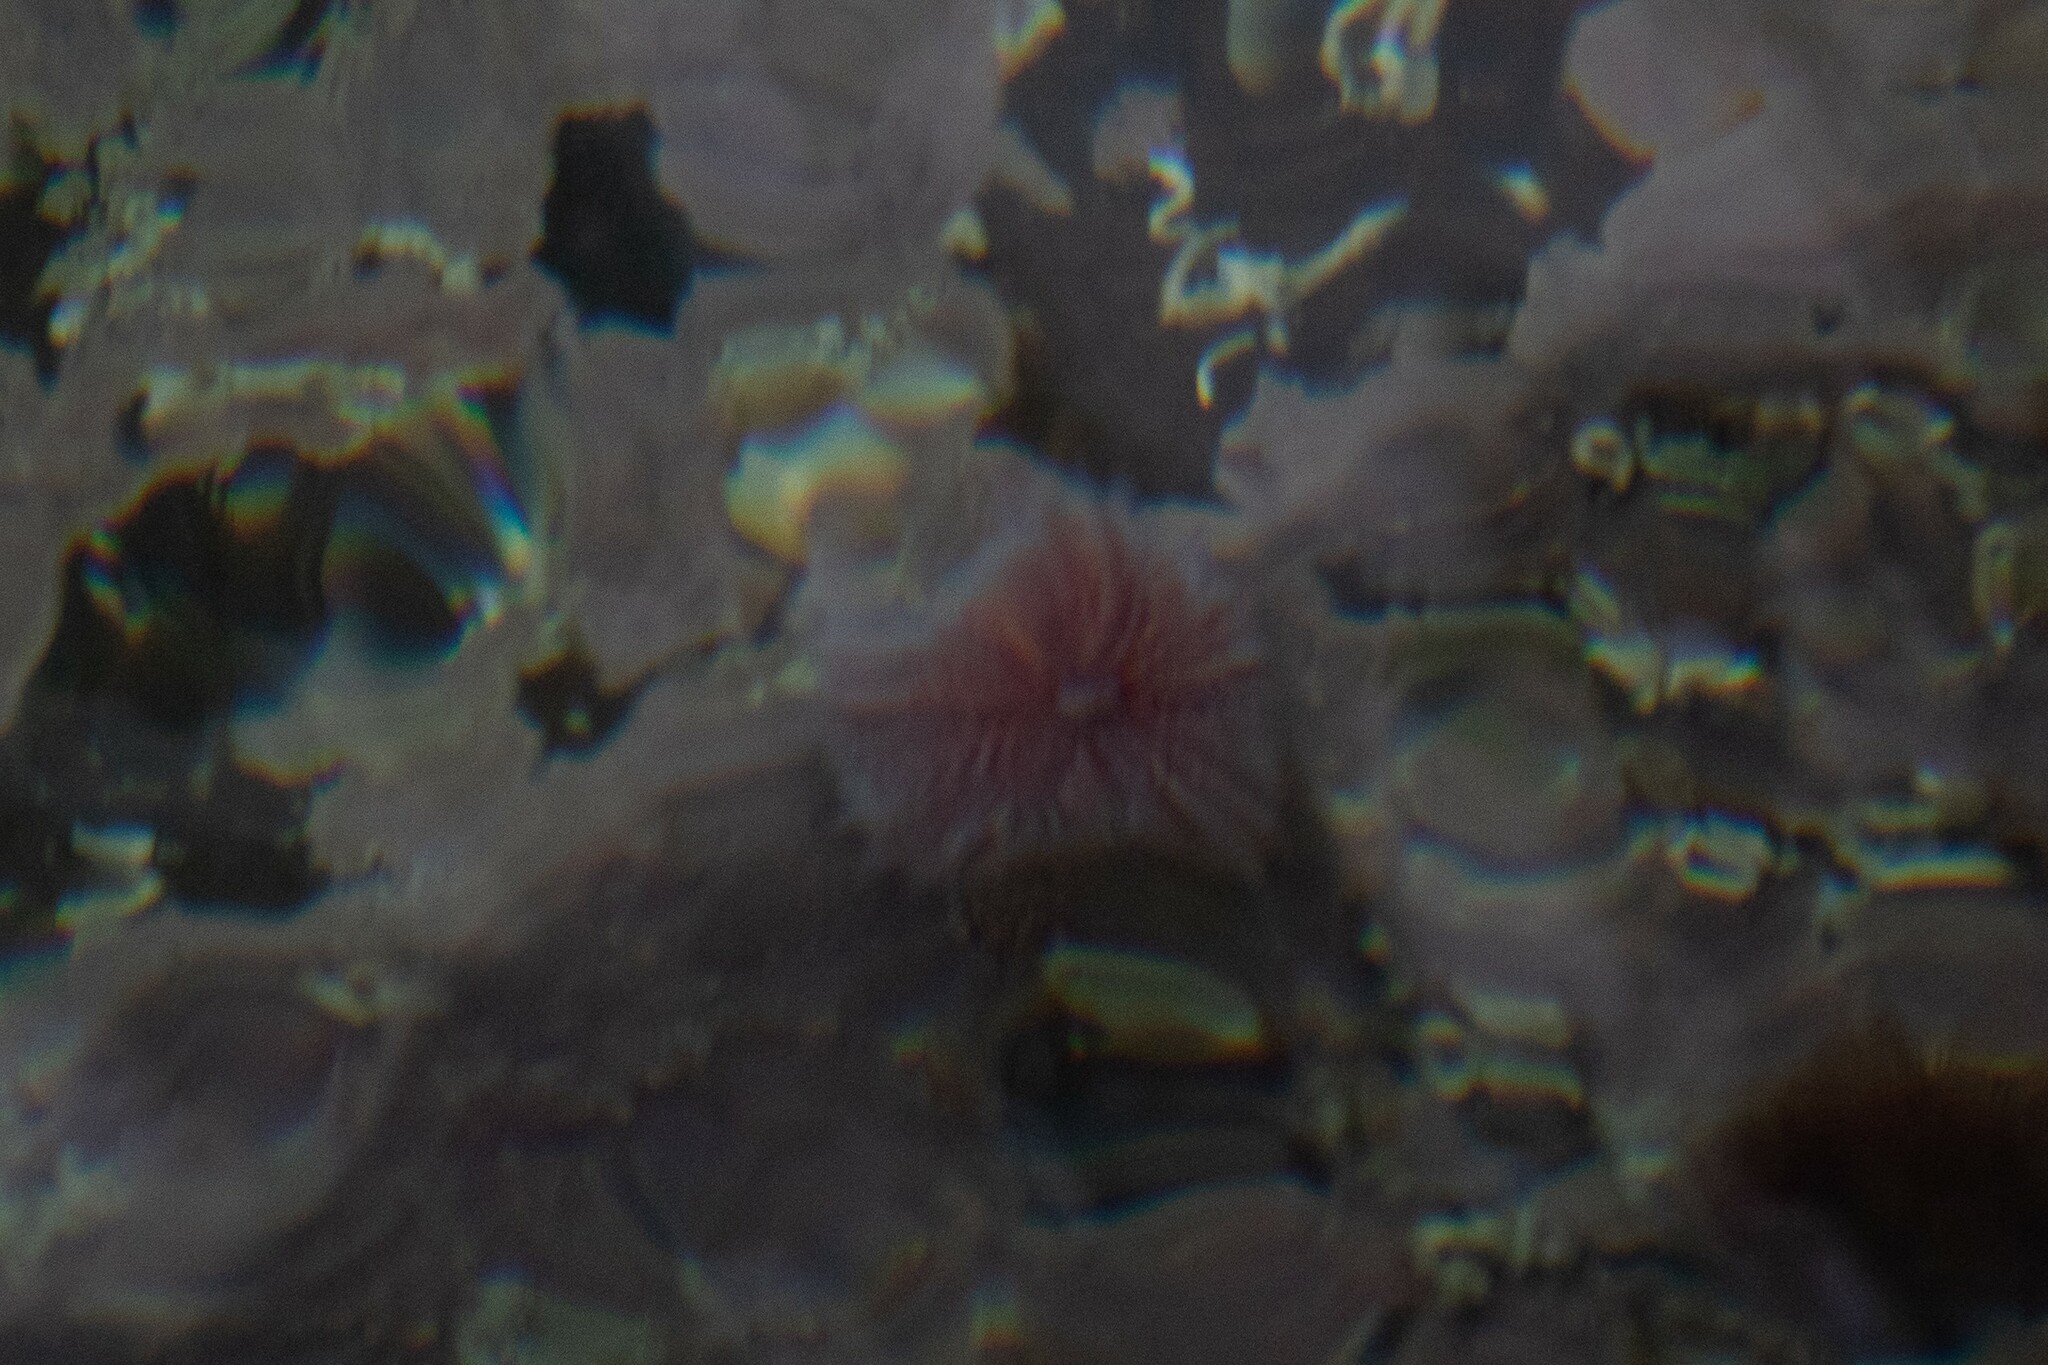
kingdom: Animalia
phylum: Echinodermata
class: Echinoidea
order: Camarodonta
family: Echinidae
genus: Echinus
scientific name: Echinus esculentus
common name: Edible sea urchin
